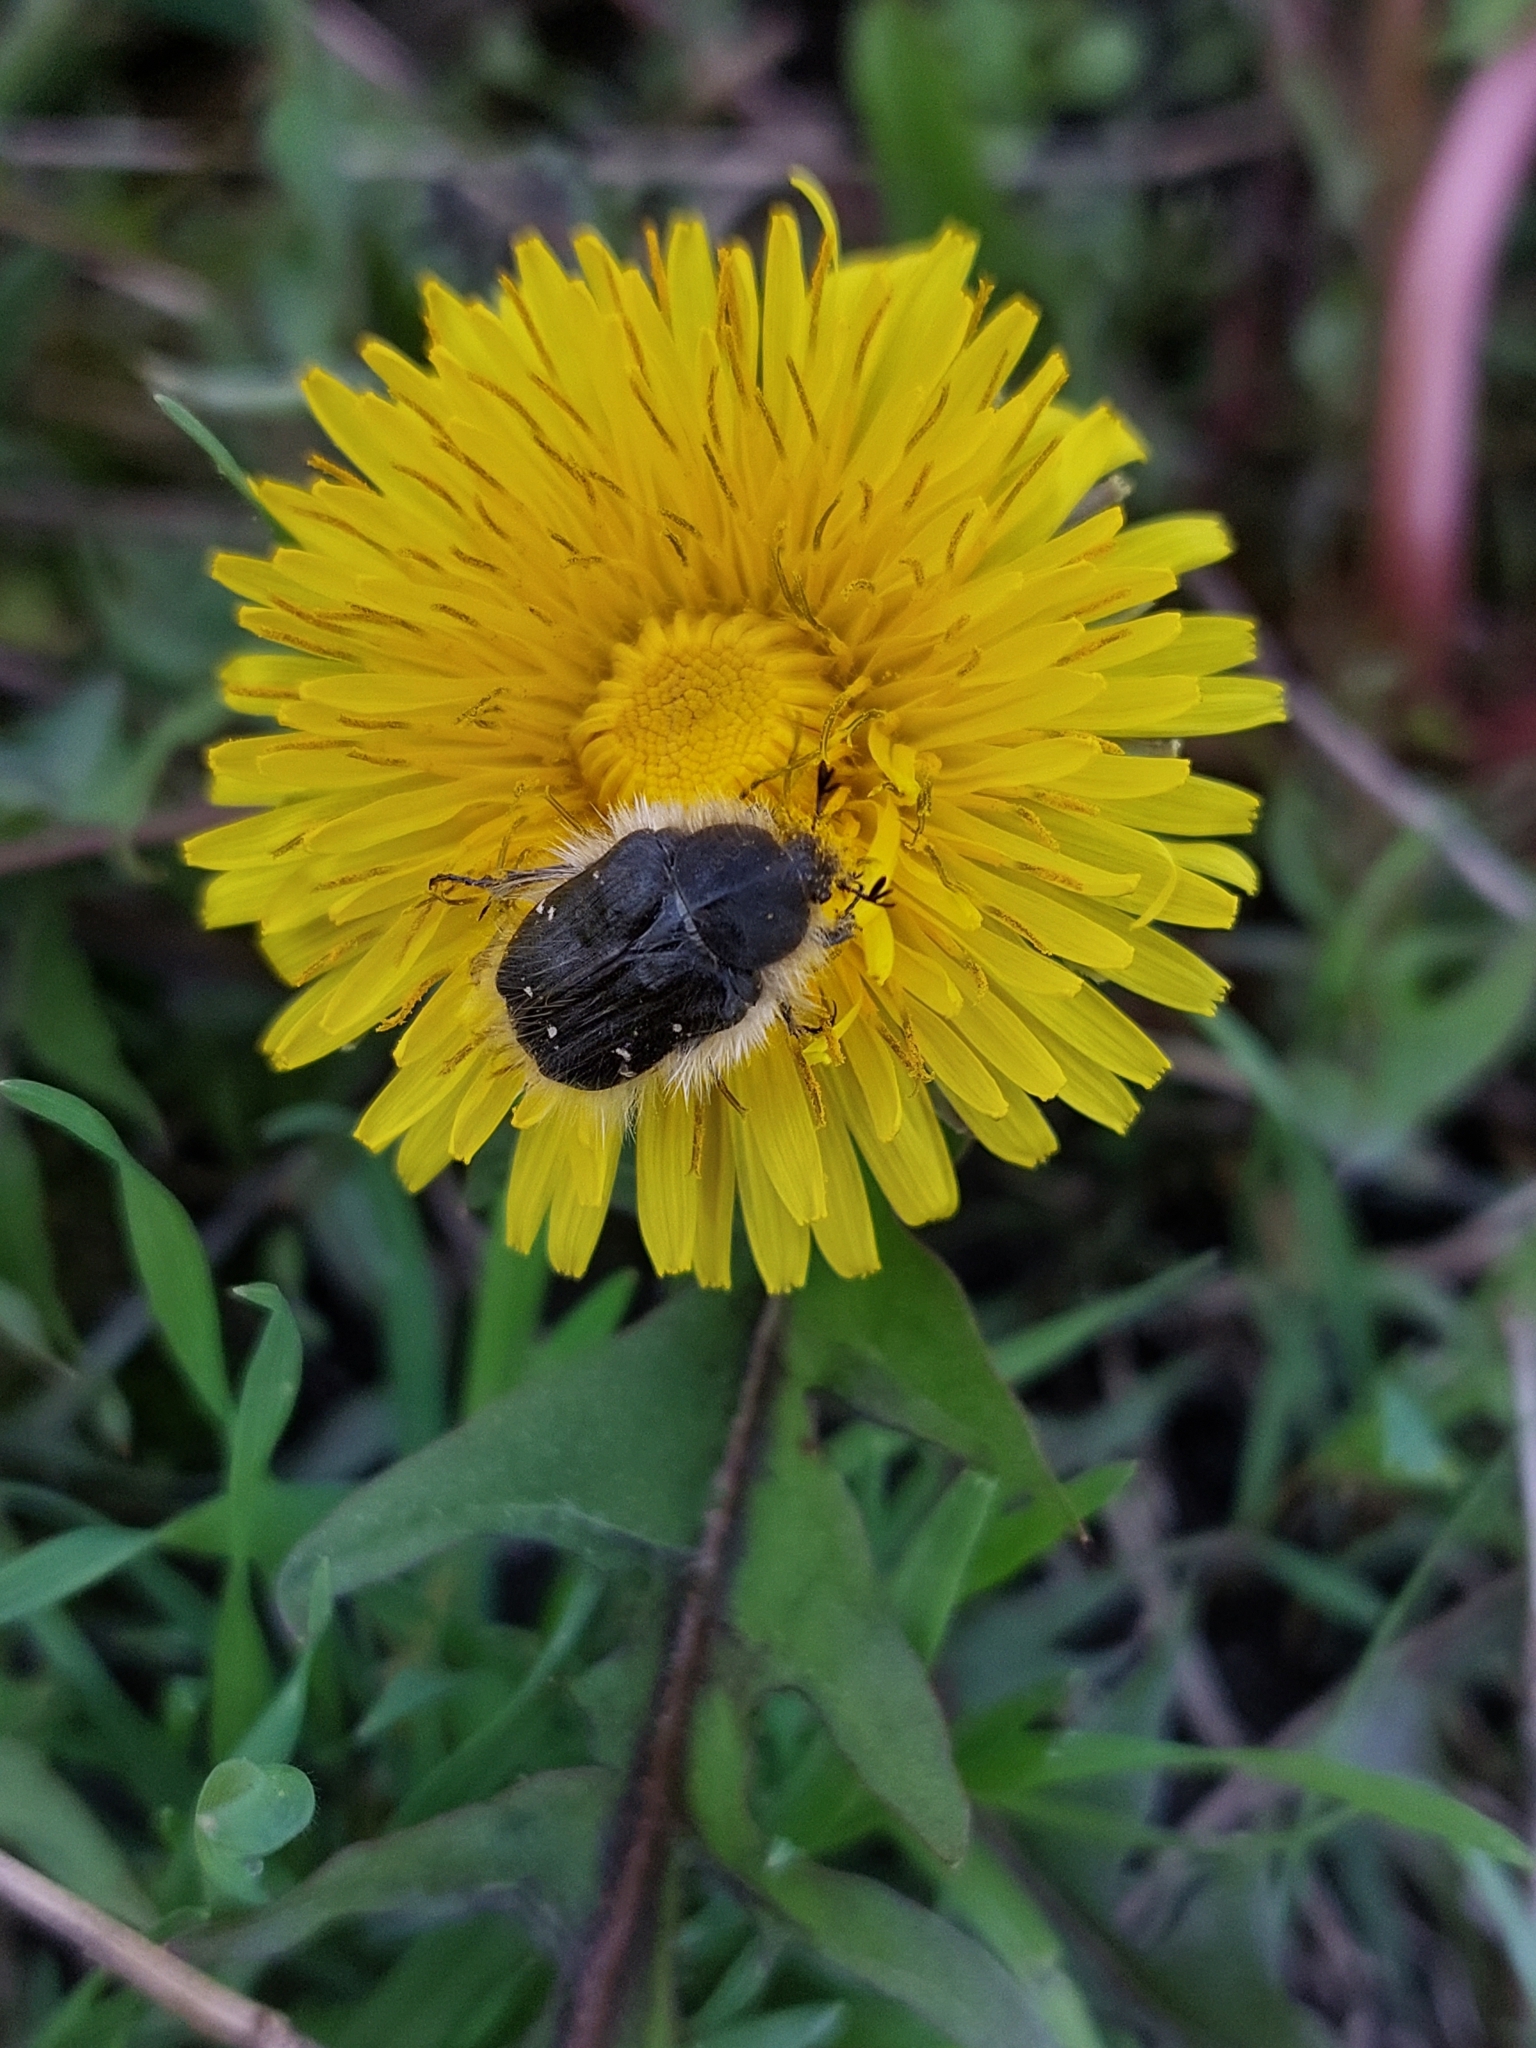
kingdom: Animalia
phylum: Arthropoda
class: Insecta
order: Coleoptera
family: Scarabaeidae
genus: Tropinota
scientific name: Tropinota hirta
